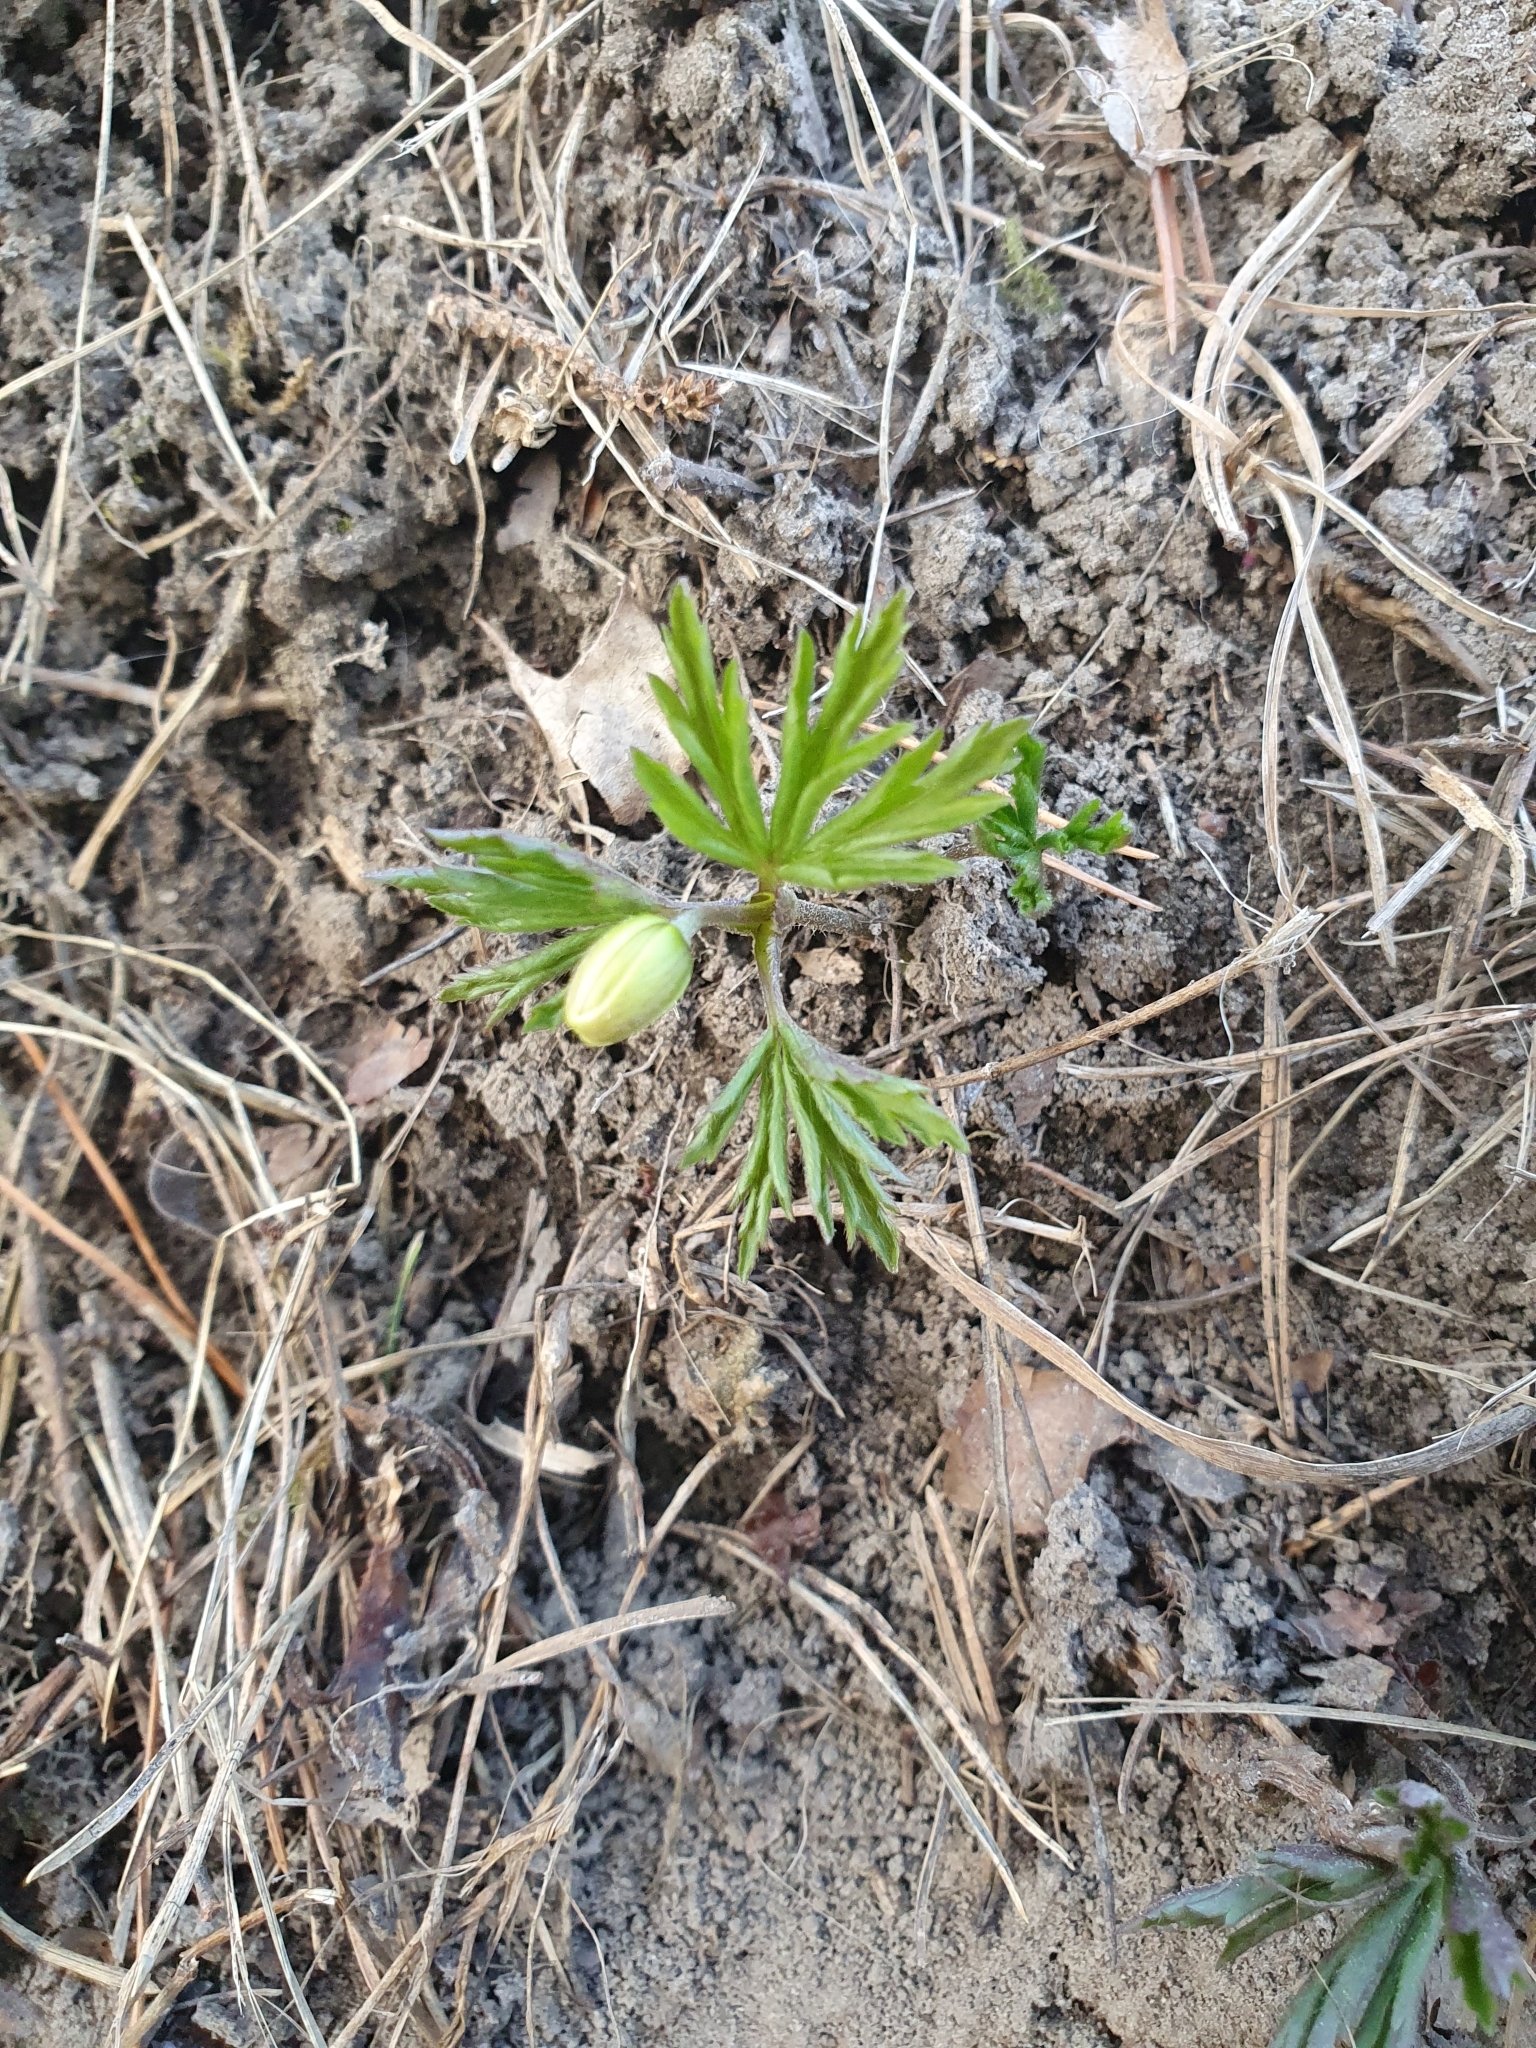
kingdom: Plantae
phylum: Tracheophyta
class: Magnoliopsida
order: Ranunculales
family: Ranunculaceae
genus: Anemone
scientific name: Anemone nemorosa
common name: Wood anemone
